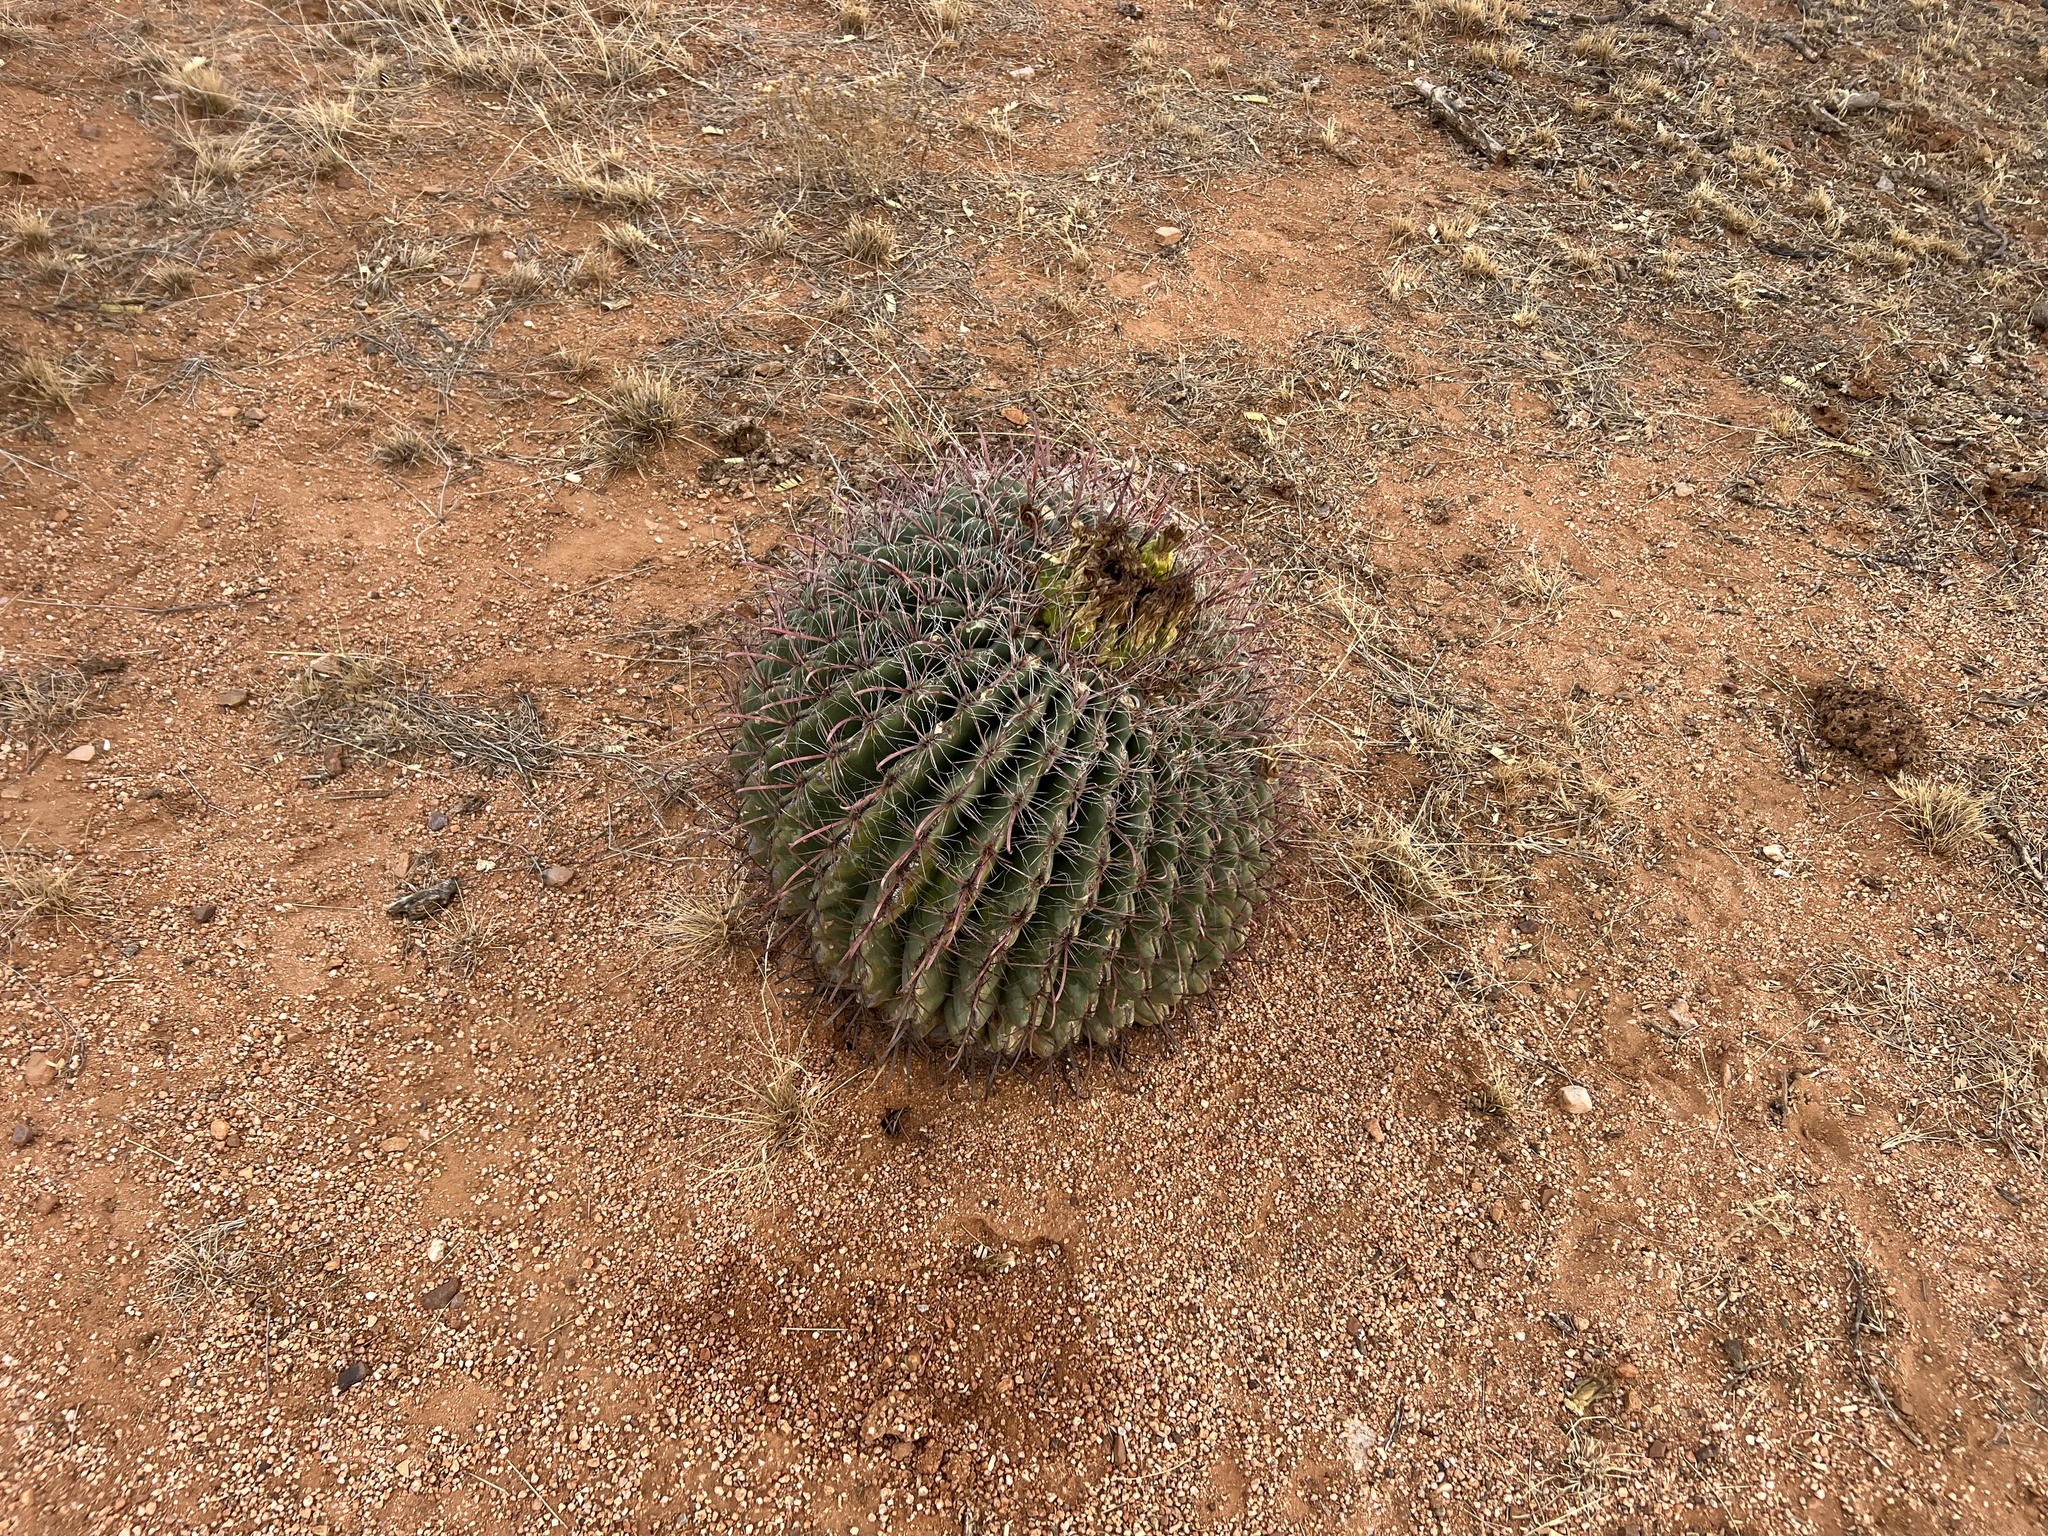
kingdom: Plantae
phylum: Tracheophyta
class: Magnoliopsida
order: Caryophyllales
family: Cactaceae
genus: Ferocactus
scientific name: Ferocactus wislizeni
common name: Candy barrel cactus
